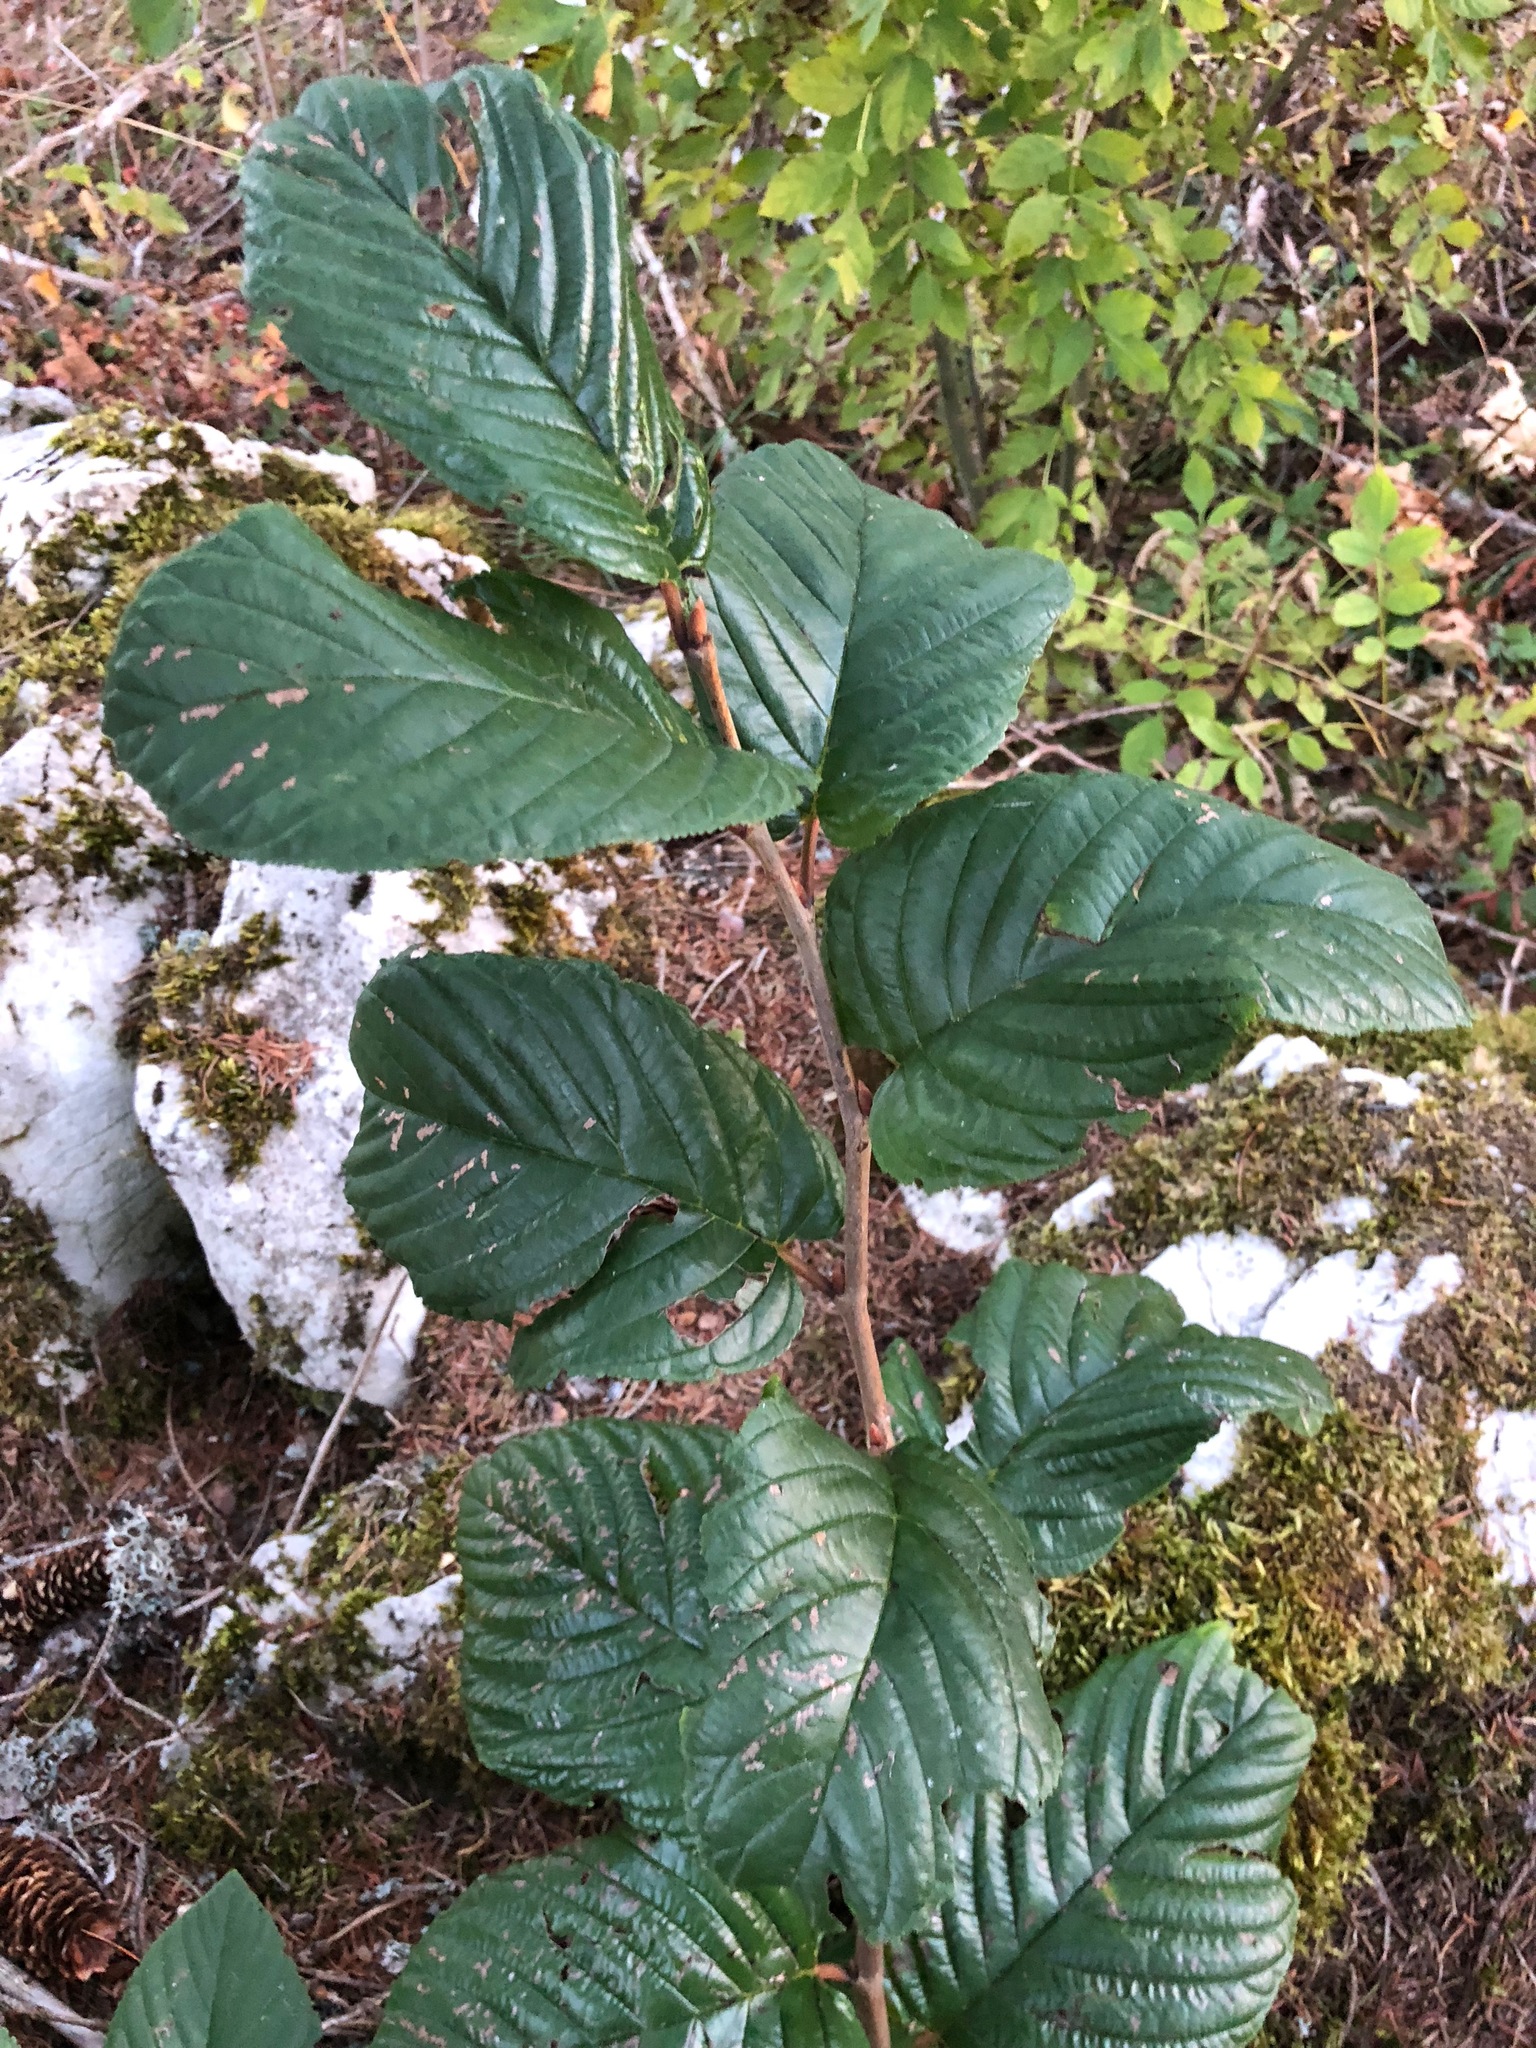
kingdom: Plantae
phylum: Tracheophyta
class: Magnoliopsida
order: Rosales
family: Rhamnaceae
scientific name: Rhamnaceae
